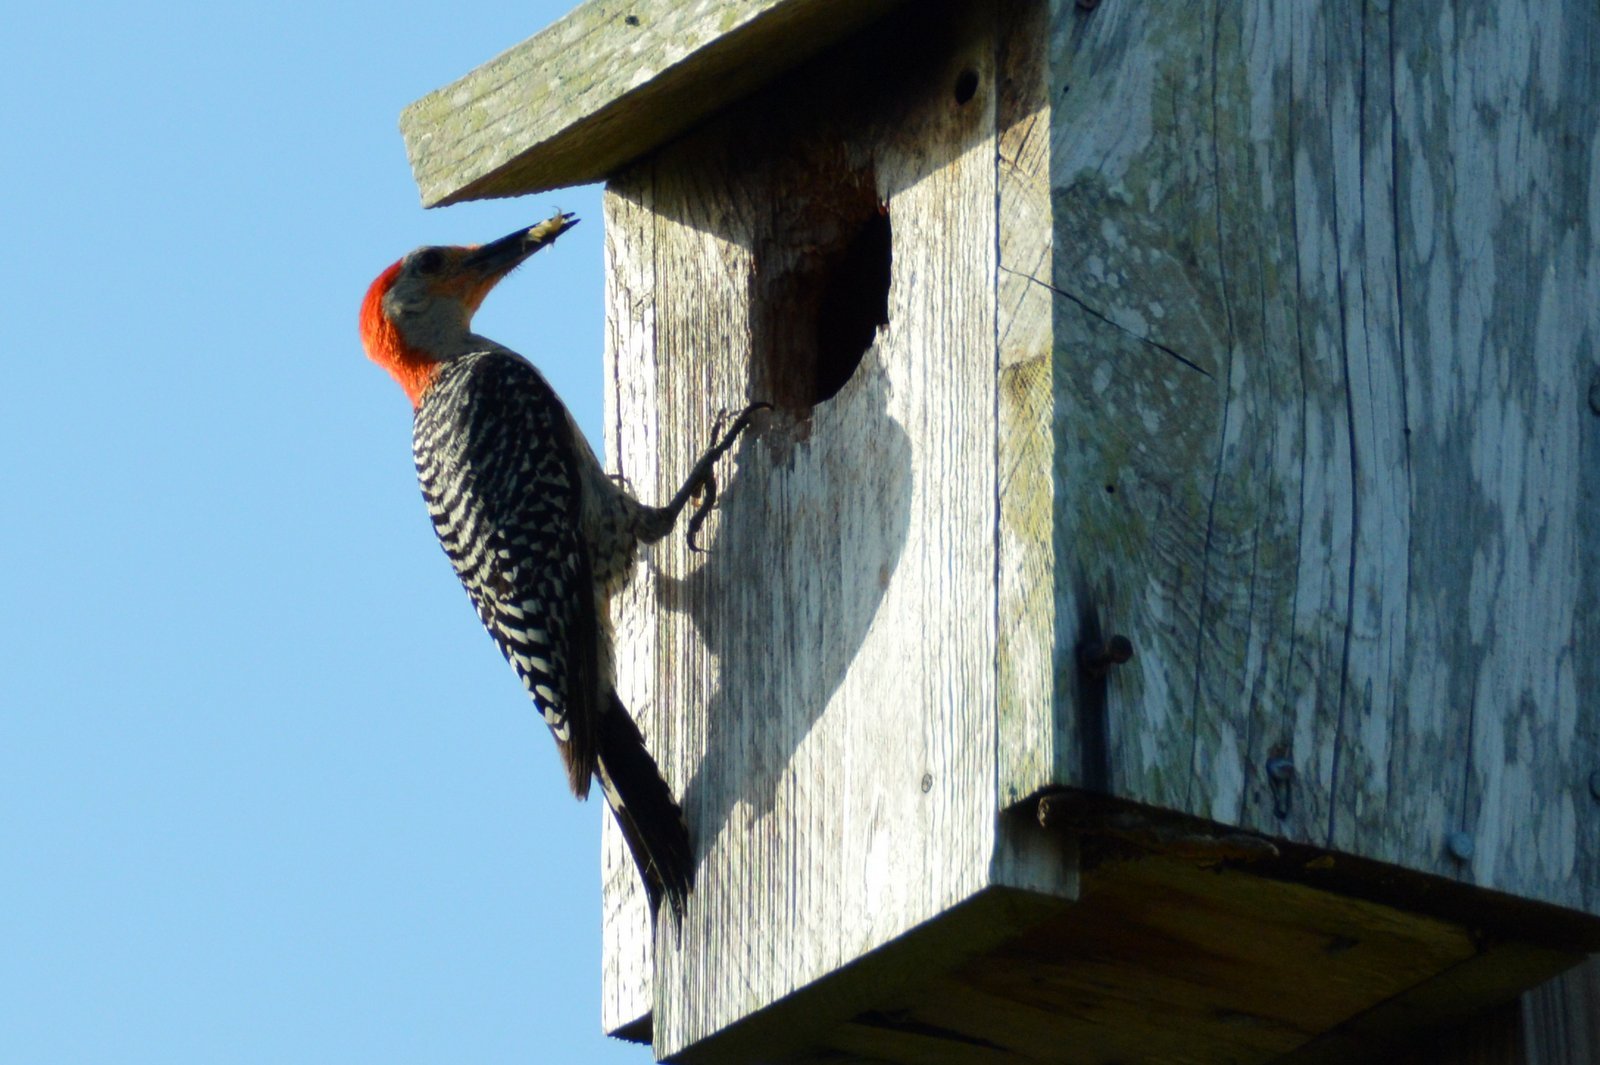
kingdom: Animalia
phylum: Chordata
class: Aves
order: Piciformes
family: Picidae
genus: Melanerpes
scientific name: Melanerpes carolinus
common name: Red-bellied woodpecker
